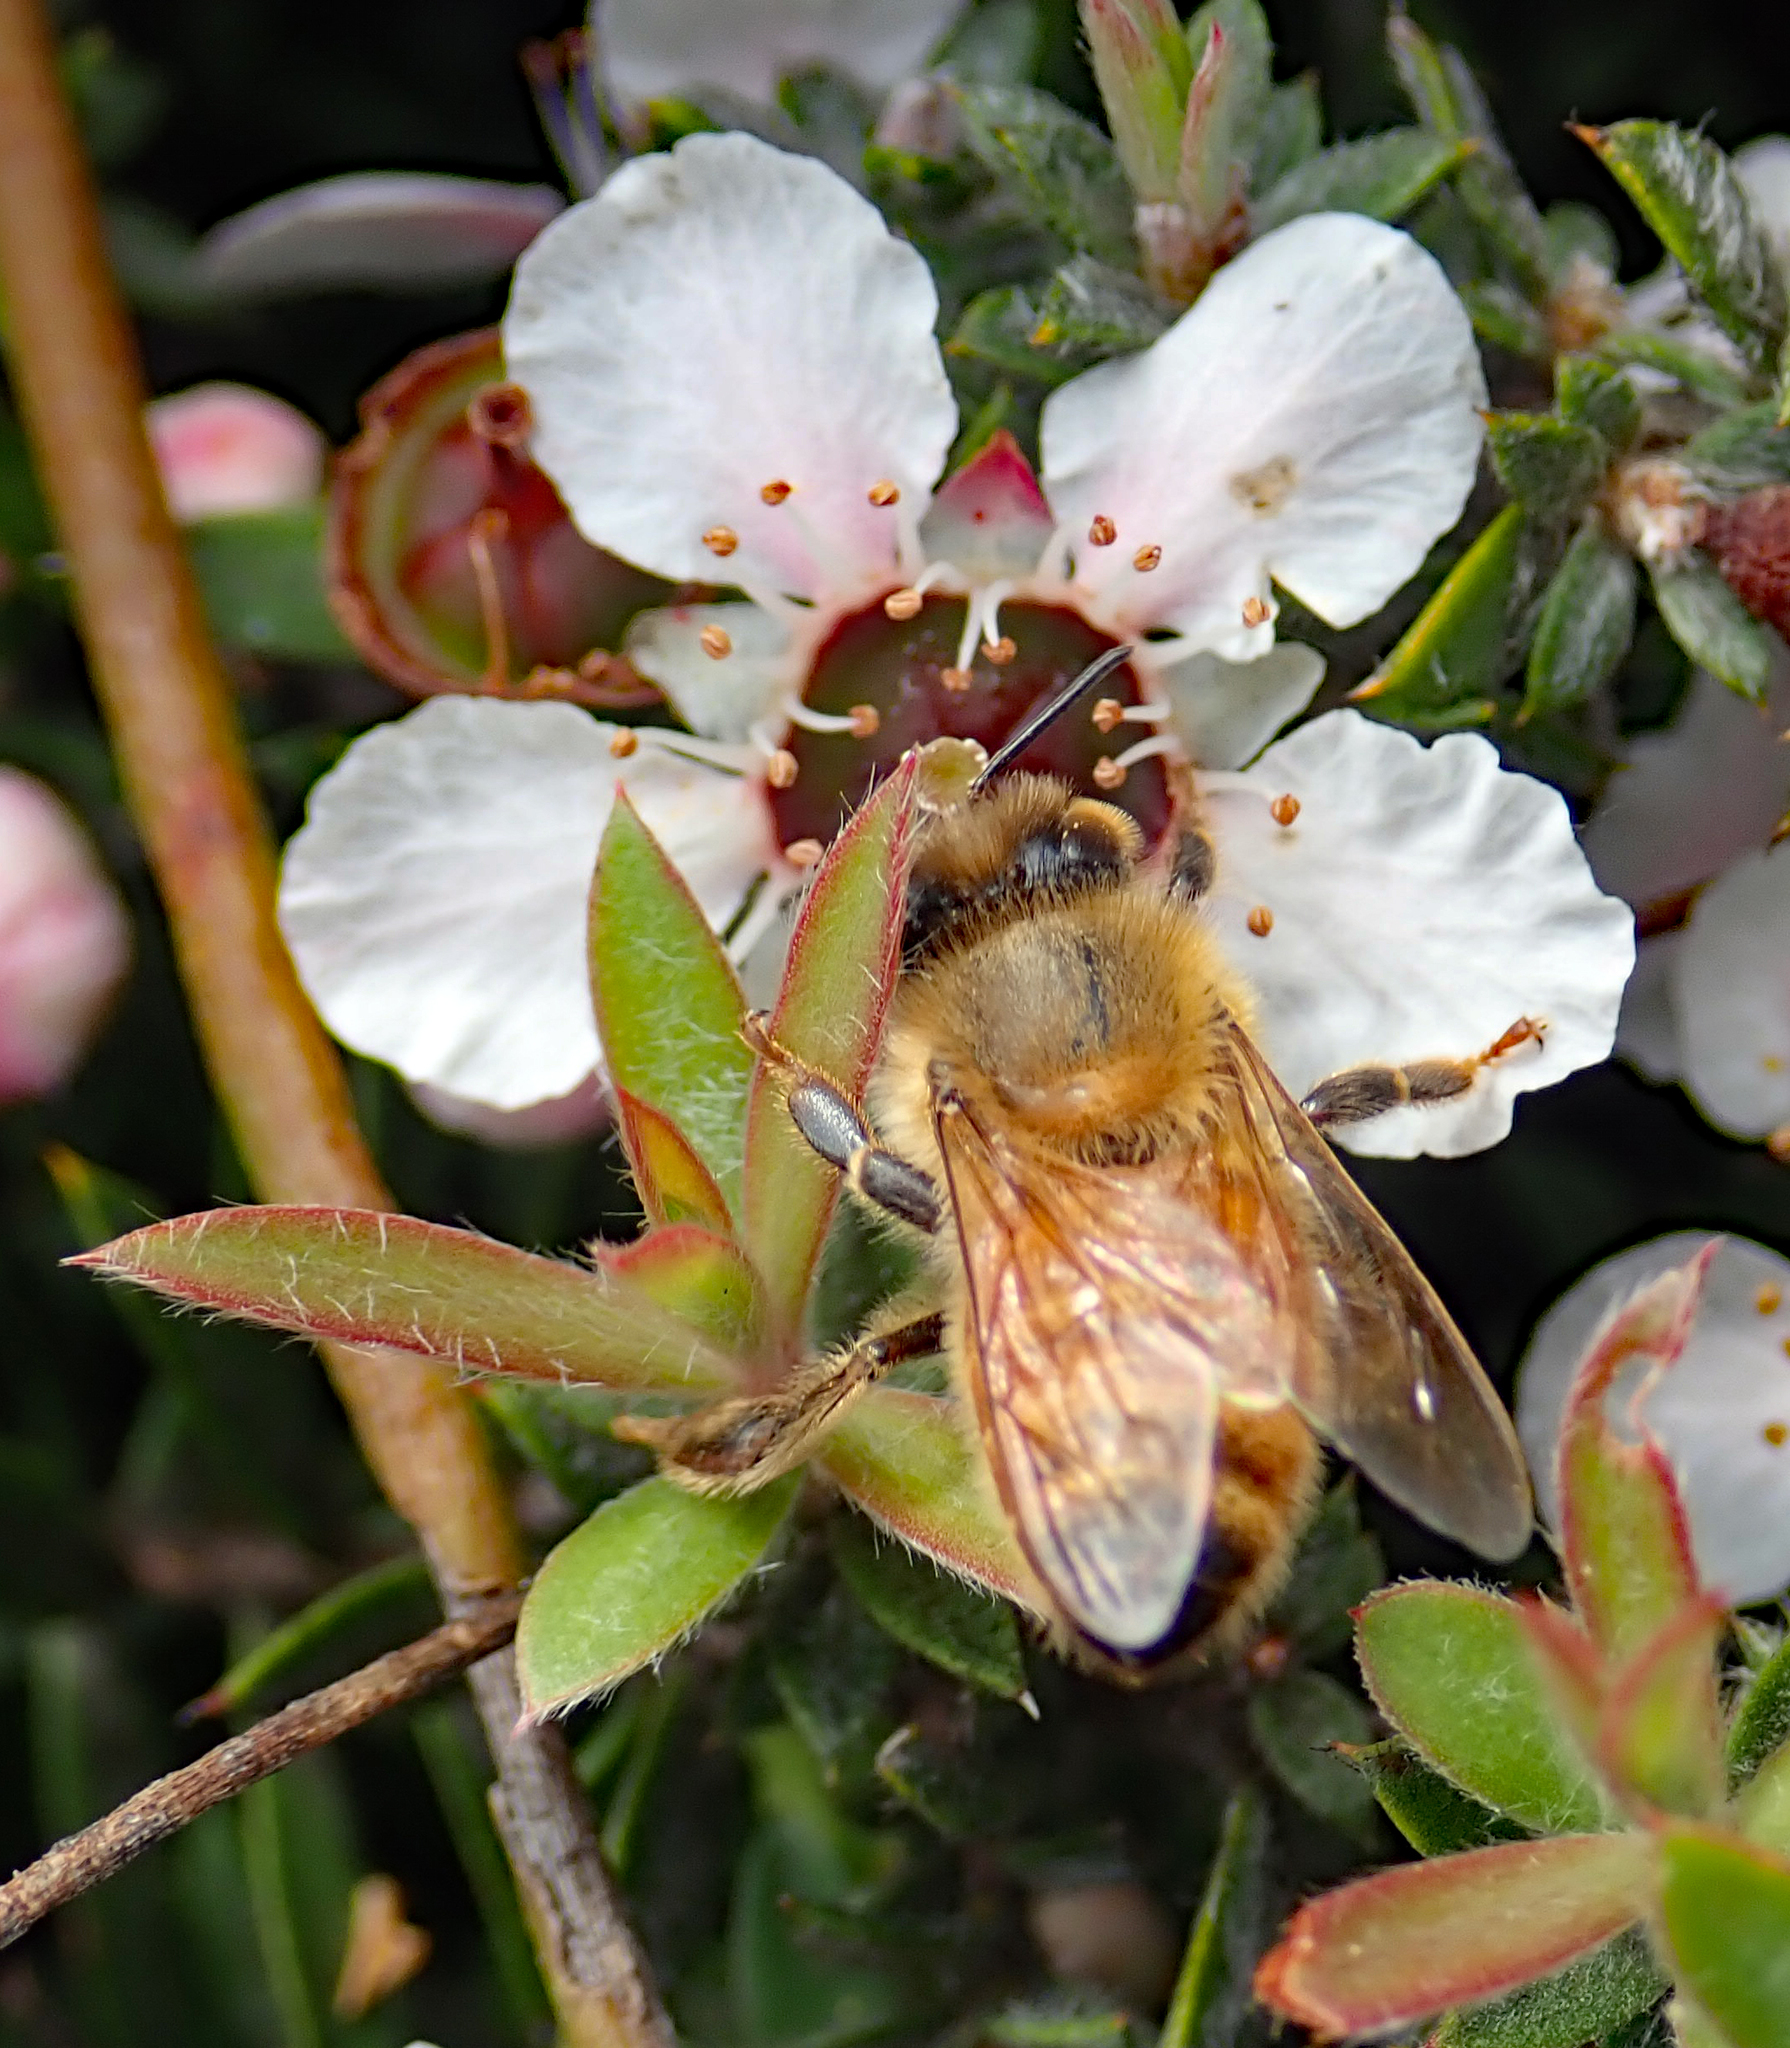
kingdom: Animalia
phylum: Arthropoda
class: Insecta
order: Hymenoptera
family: Apidae
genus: Apis
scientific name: Apis mellifera
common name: Honey bee
